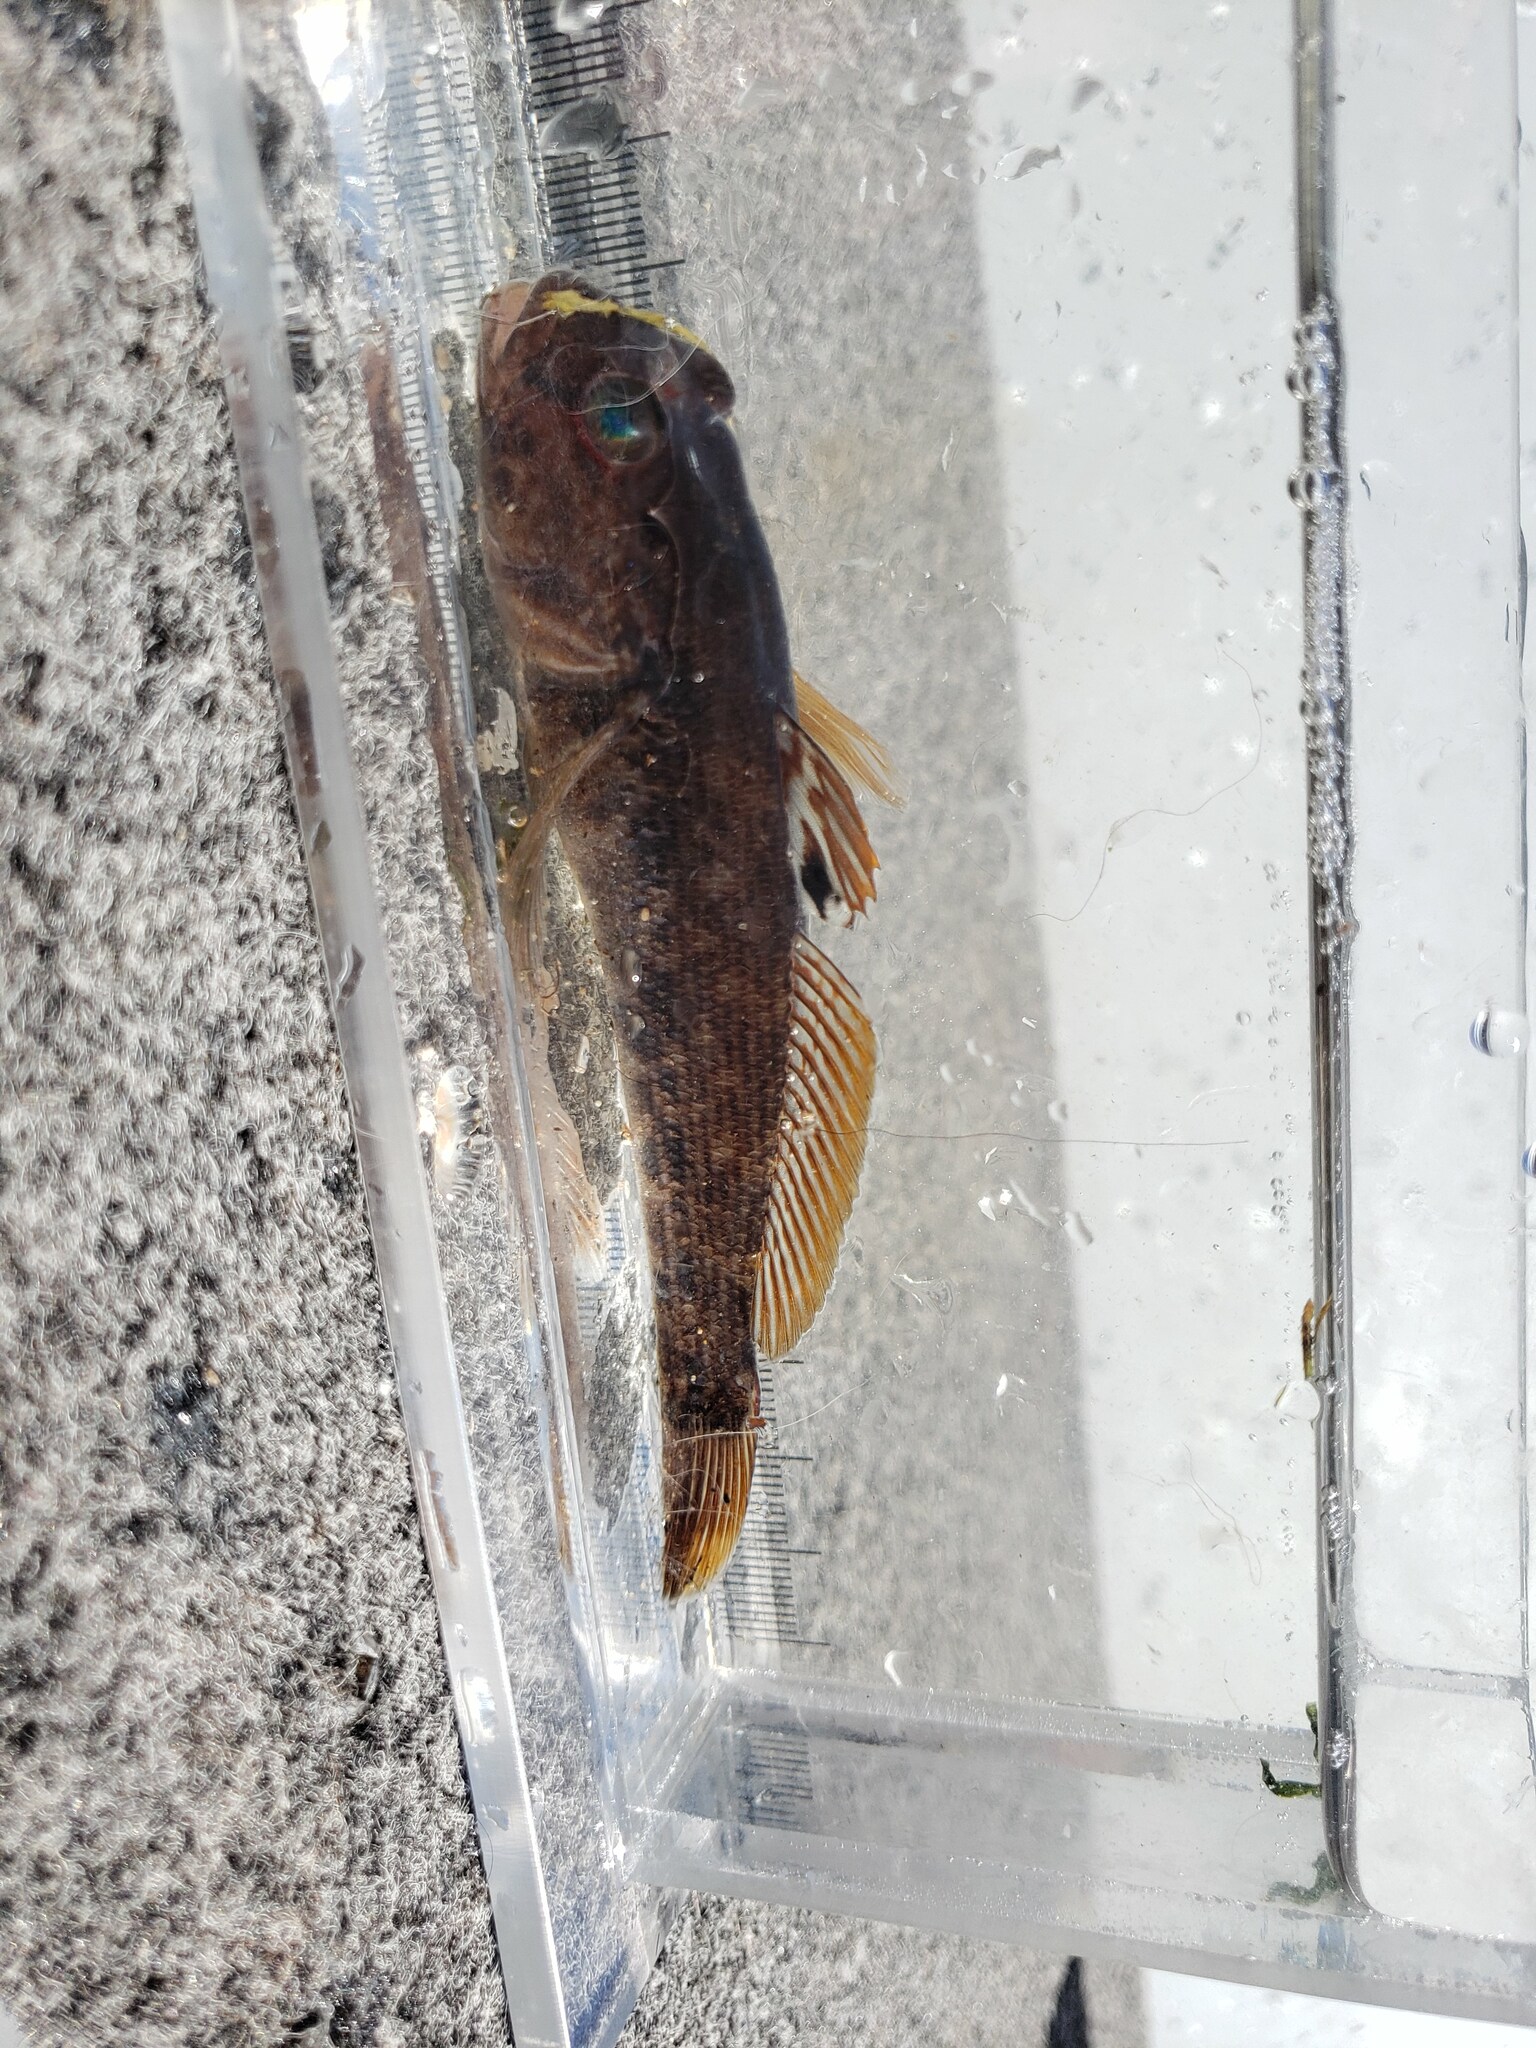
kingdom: Animalia
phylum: Chordata
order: Perciformes
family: Gobiidae
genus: Neogobius
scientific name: Neogobius melanostomus
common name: Round goby
